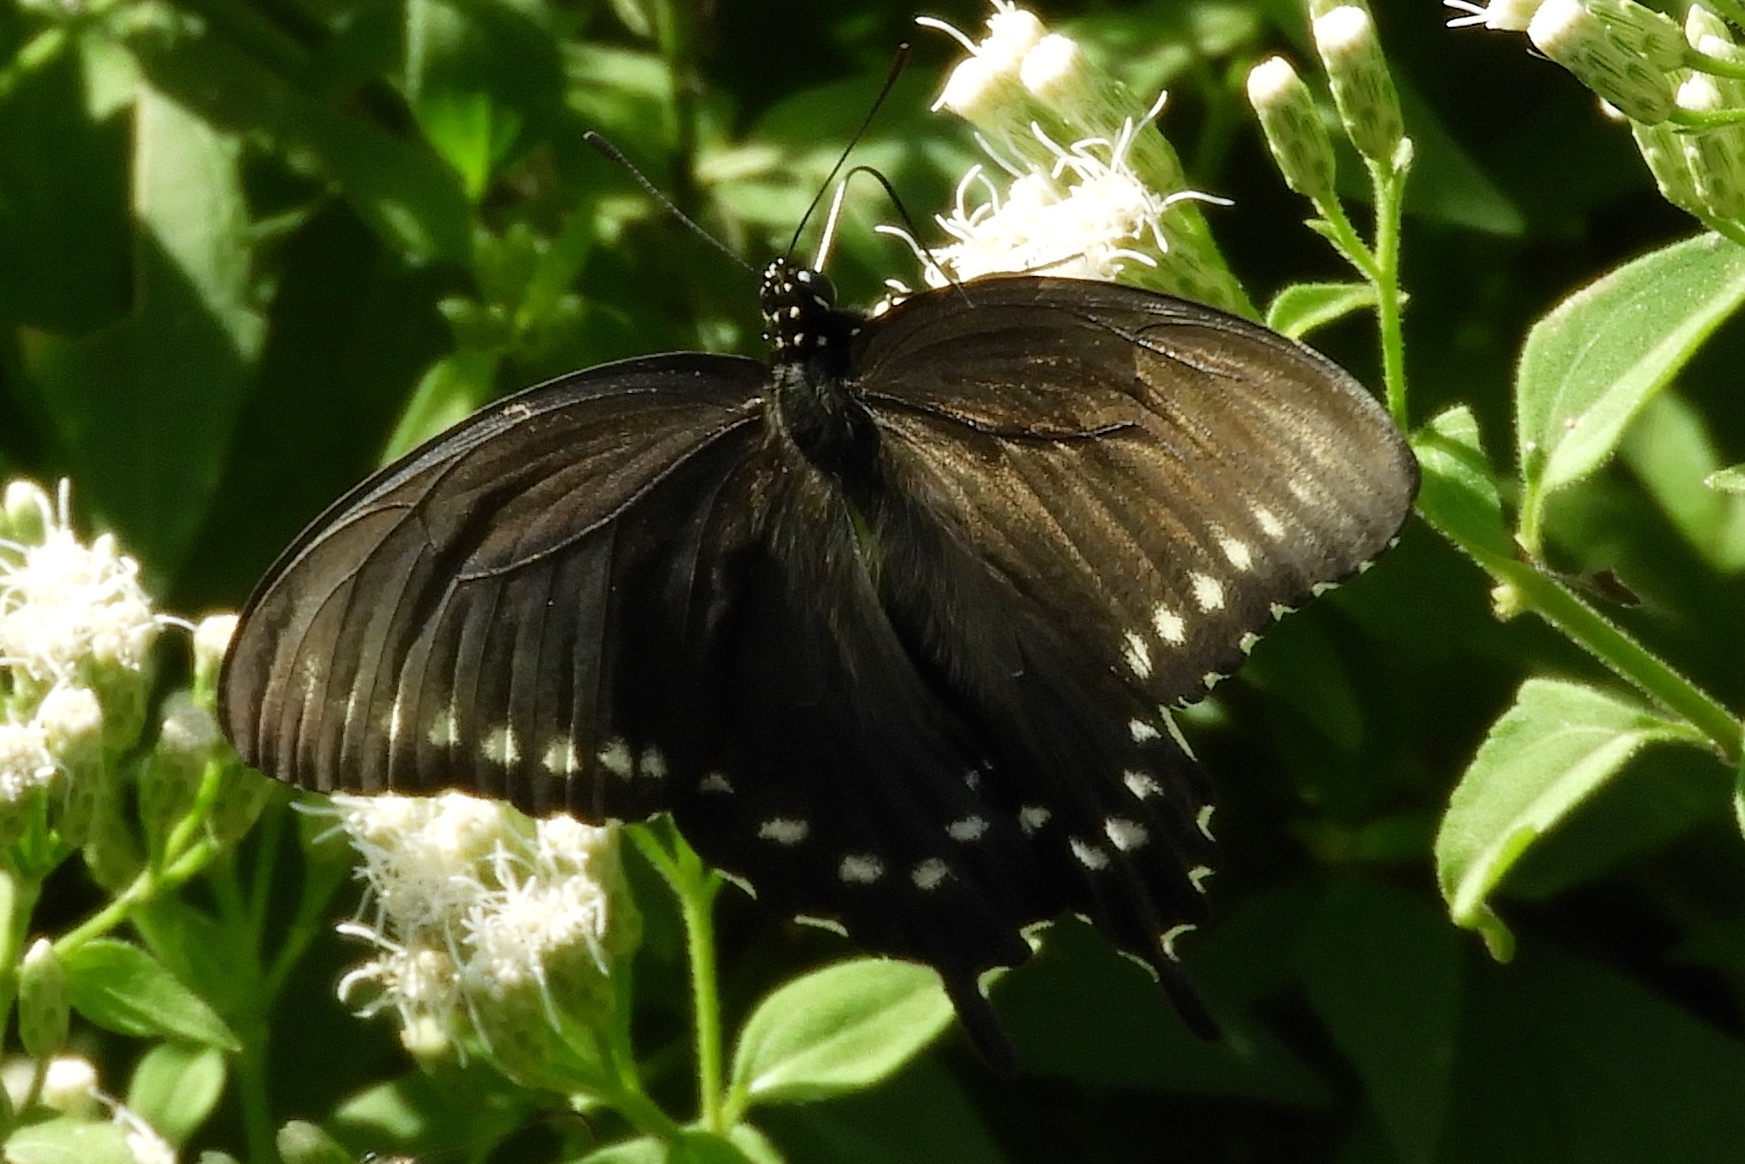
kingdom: Animalia
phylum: Arthropoda
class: Insecta
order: Lepidoptera
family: Papilionidae
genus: Battus
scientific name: Battus philenor
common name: Pipevine swallowtail
